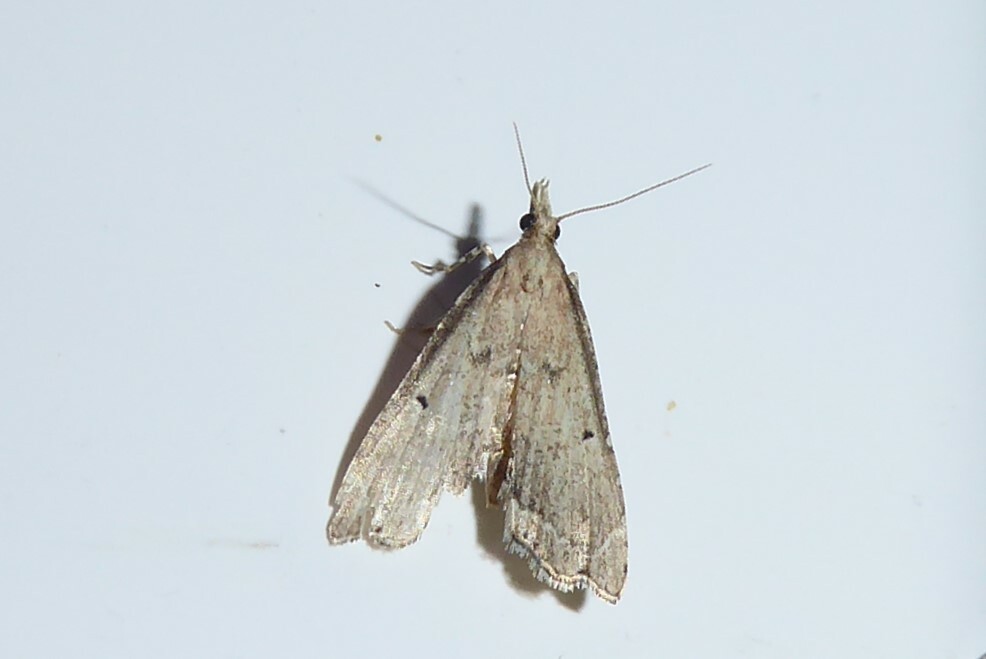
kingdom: Animalia
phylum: Arthropoda
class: Insecta
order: Lepidoptera
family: Crambidae
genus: Diplopseustis
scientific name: Diplopseustis perieresalis
